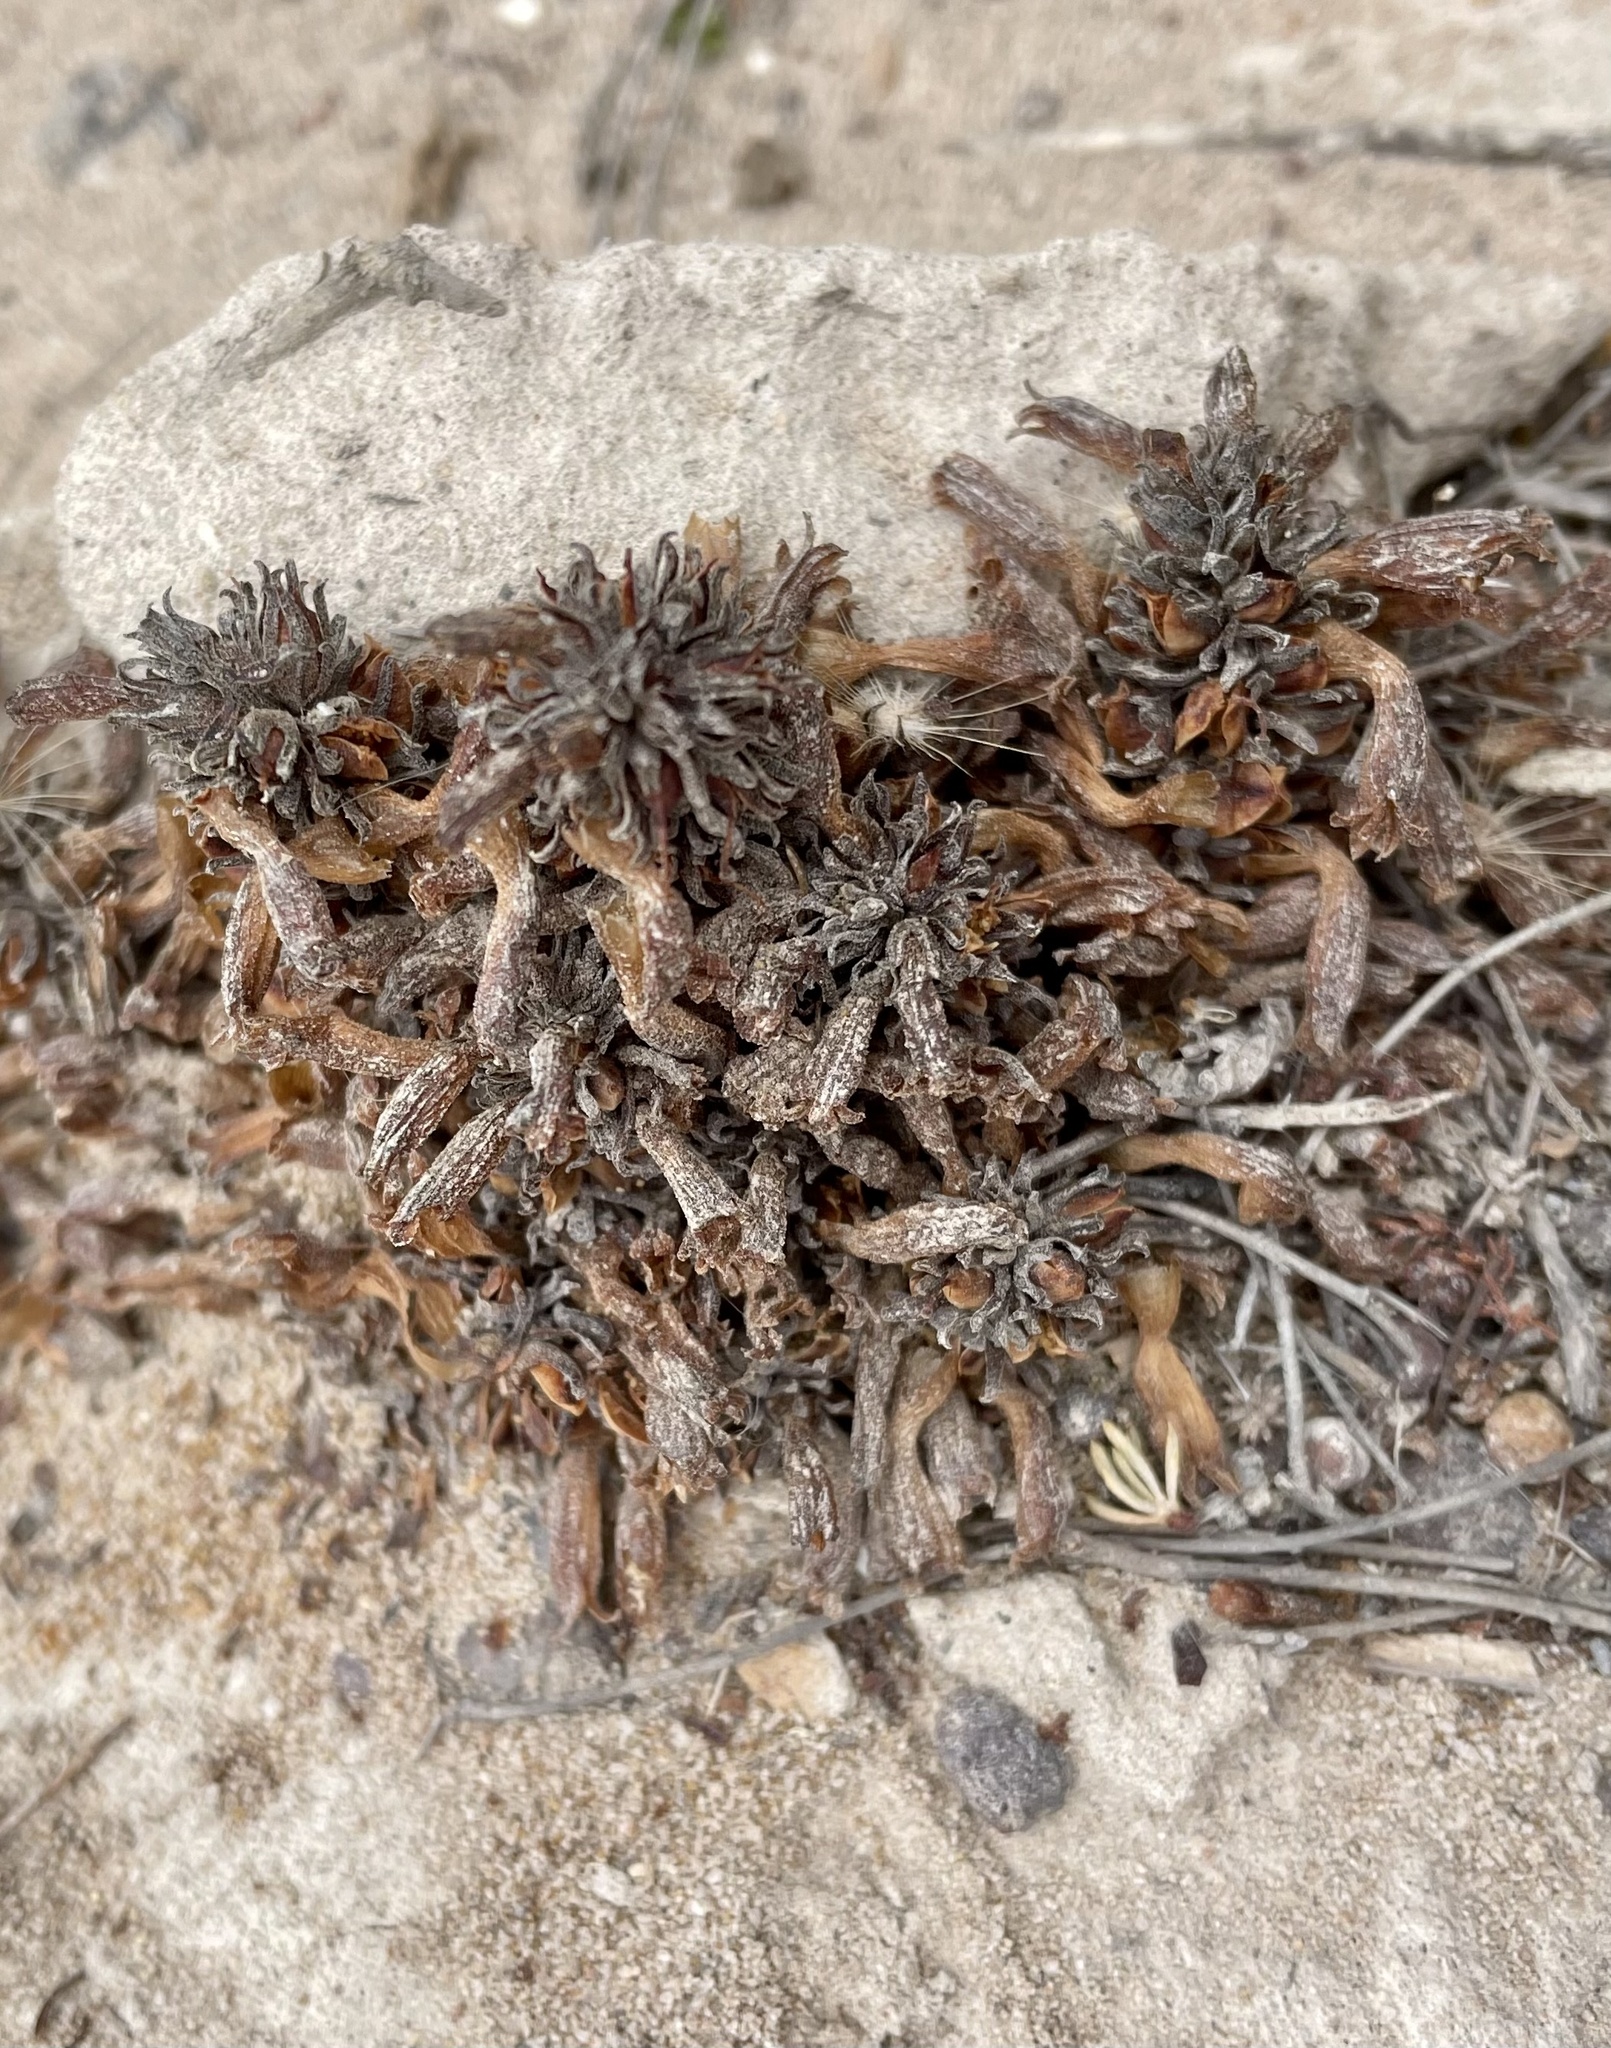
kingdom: Plantae
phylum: Tracheophyta
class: Magnoliopsida
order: Lamiales
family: Orobanchaceae
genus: Aphyllon
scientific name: Aphyllon tuberosum
